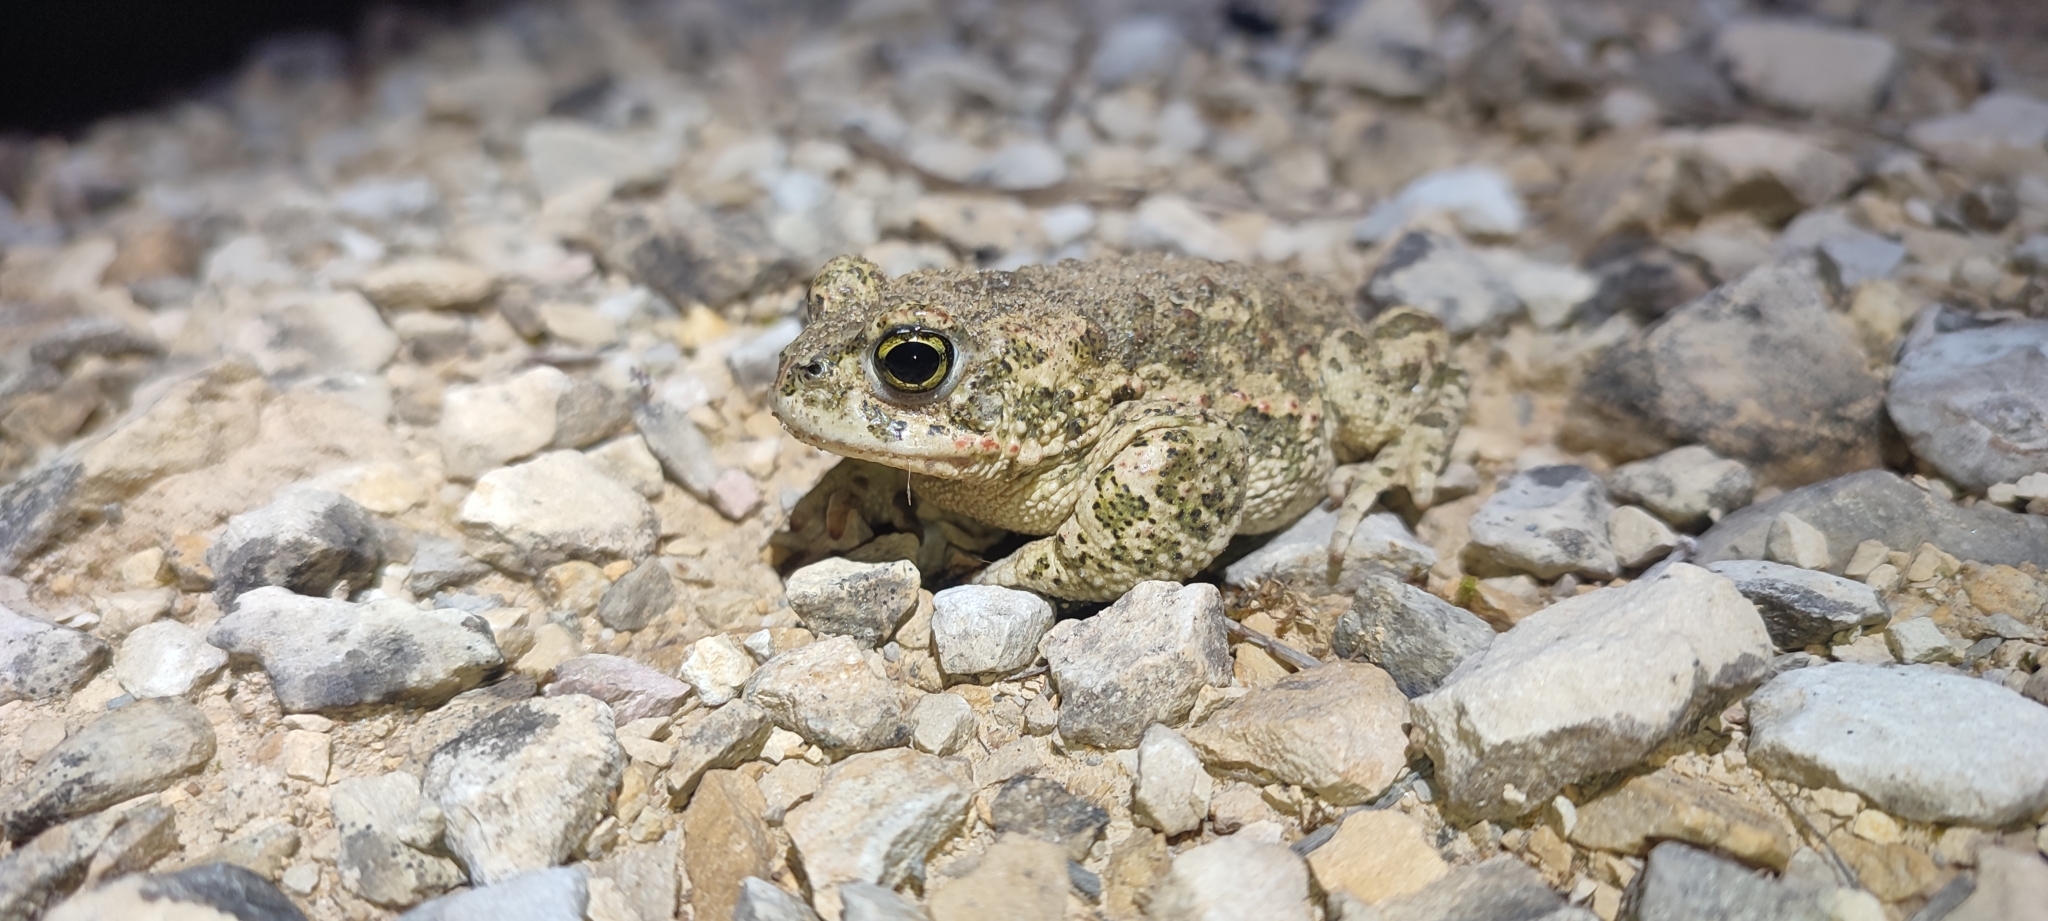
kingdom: Animalia
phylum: Chordata
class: Amphibia
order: Anura
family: Bufonidae
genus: Epidalea
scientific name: Epidalea calamita
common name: Natterjack toad
